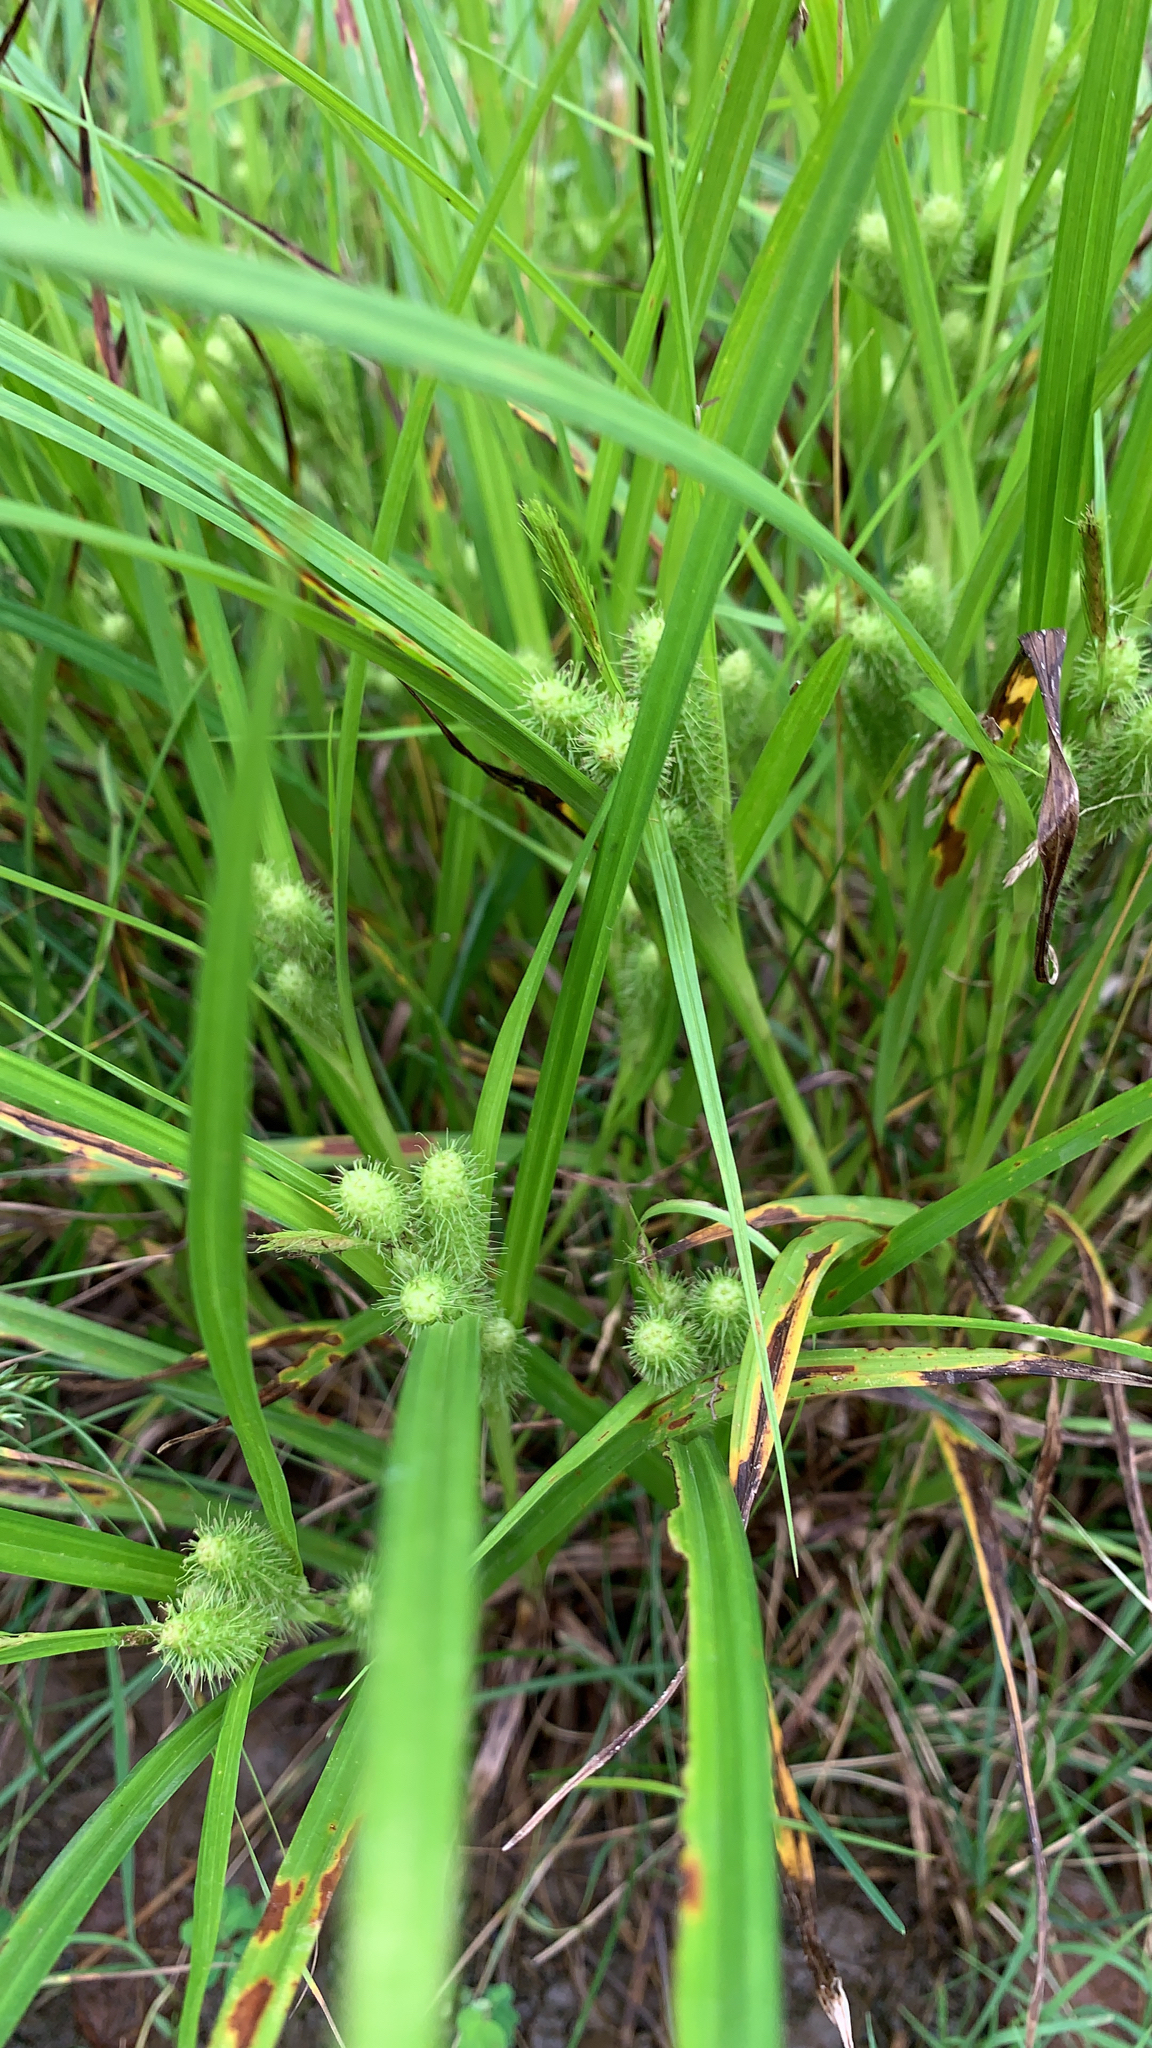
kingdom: Plantae
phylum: Tracheophyta
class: Liliopsida
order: Poales
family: Cyperaceae
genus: Carex
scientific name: Carex frankii
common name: Frank's sedge
